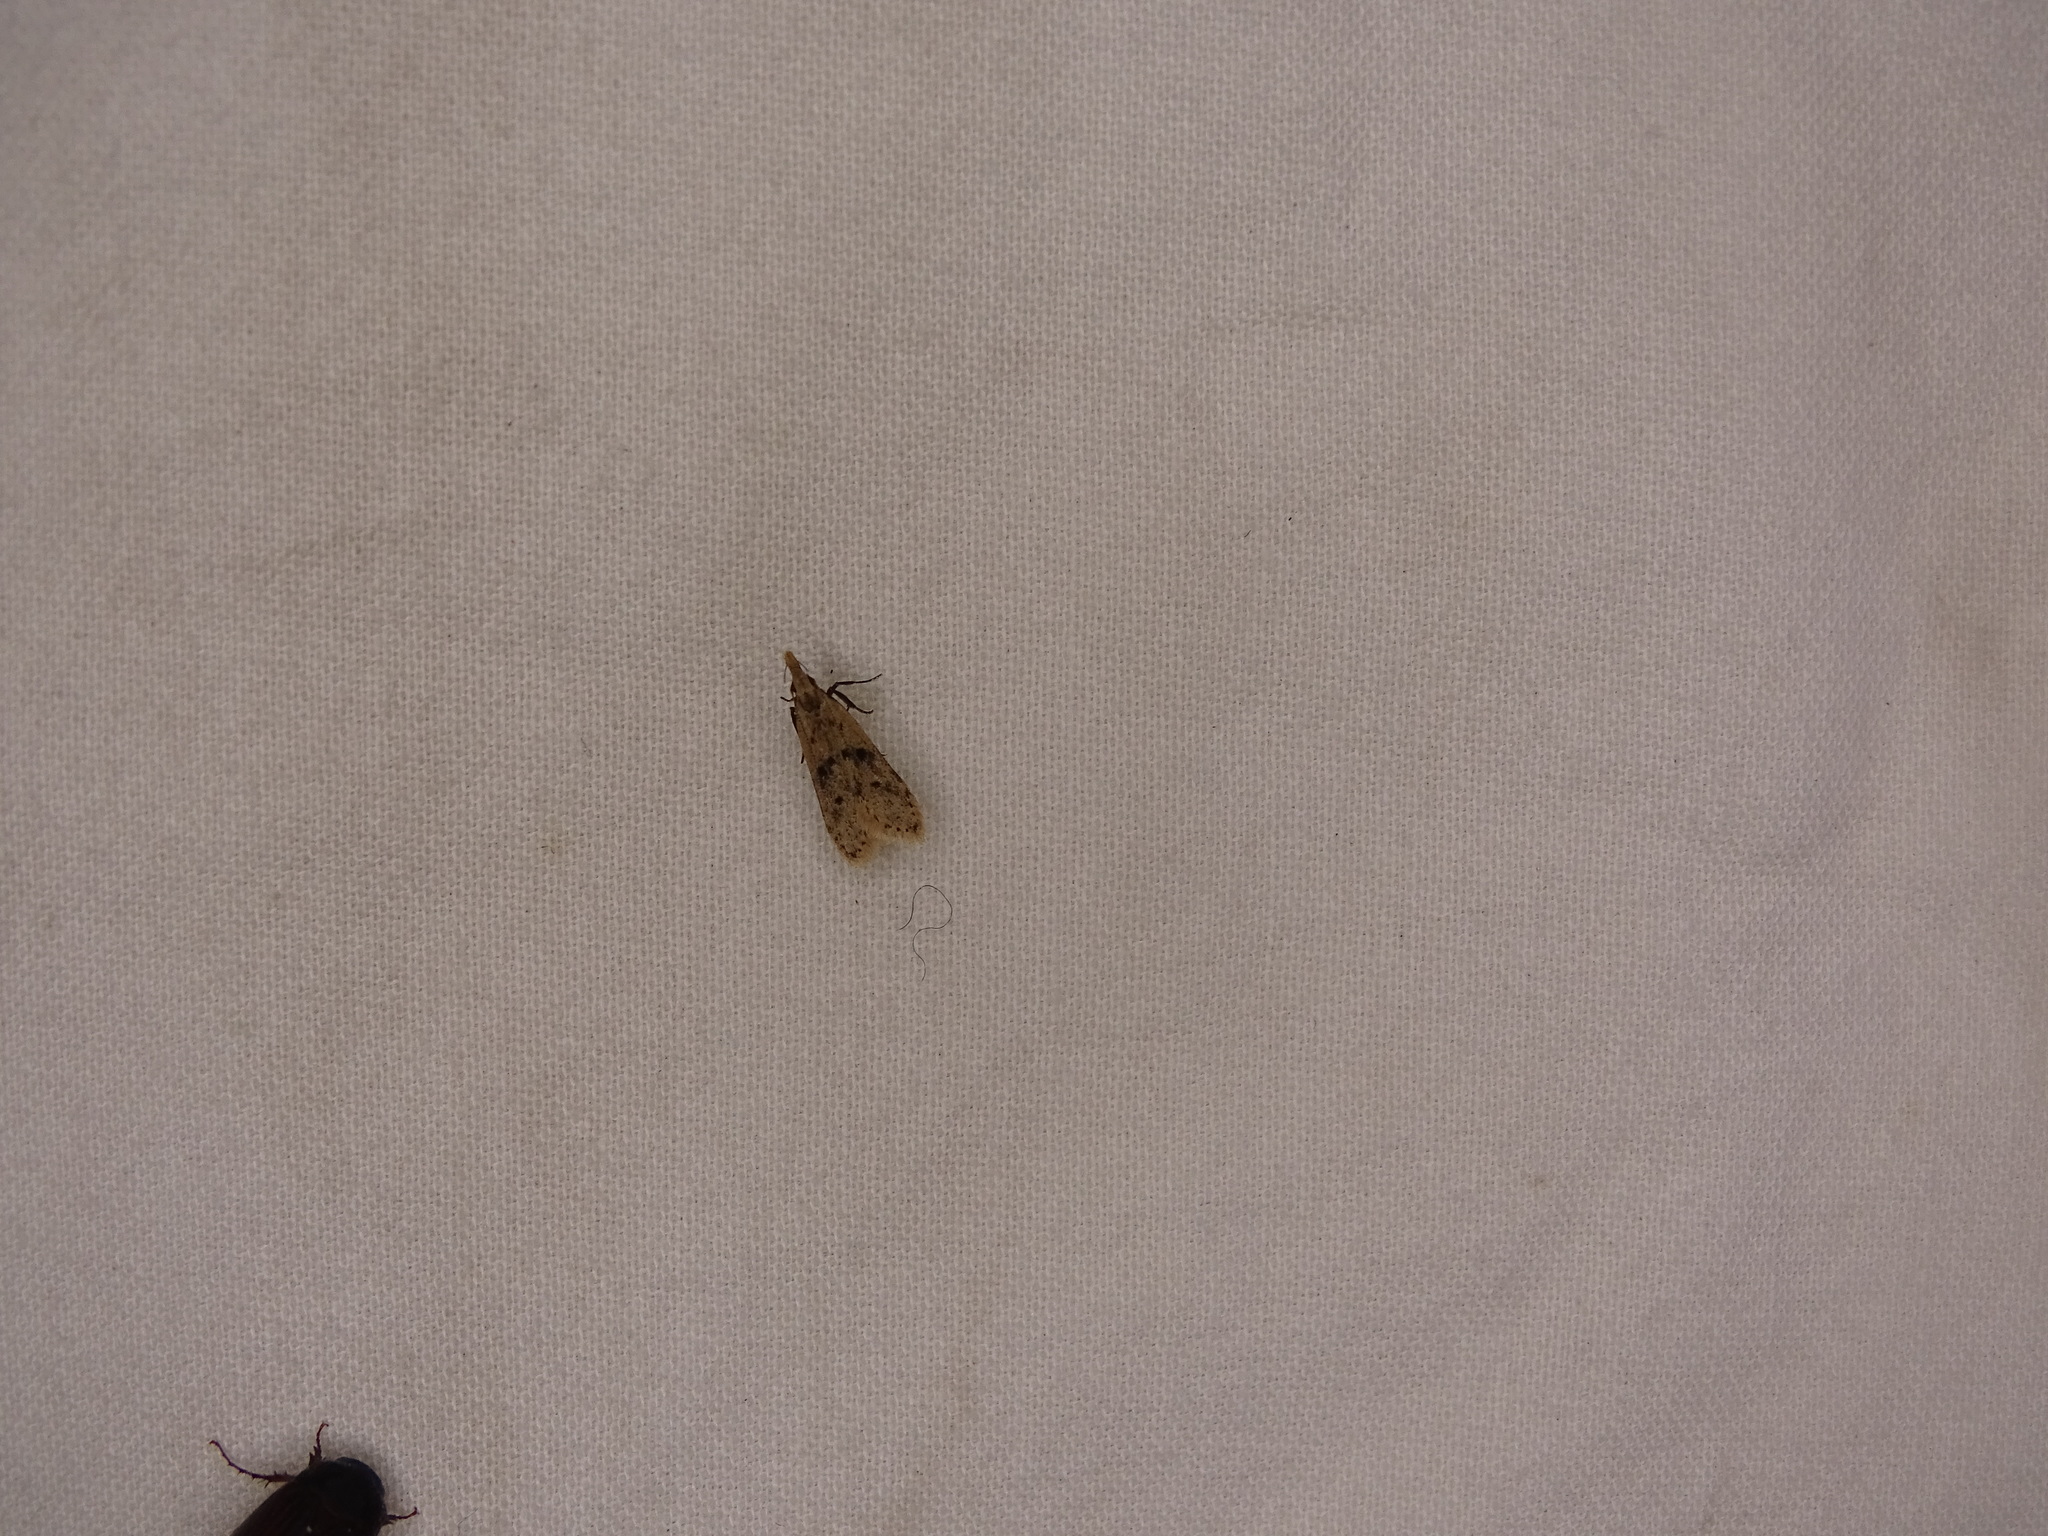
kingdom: Animalia
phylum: Arthropoda
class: Insecta
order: Lepidoptera
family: Gelechiidae
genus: Dichomeris
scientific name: Dichomeris punctipennella
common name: Many-spotted dichomeris moth
